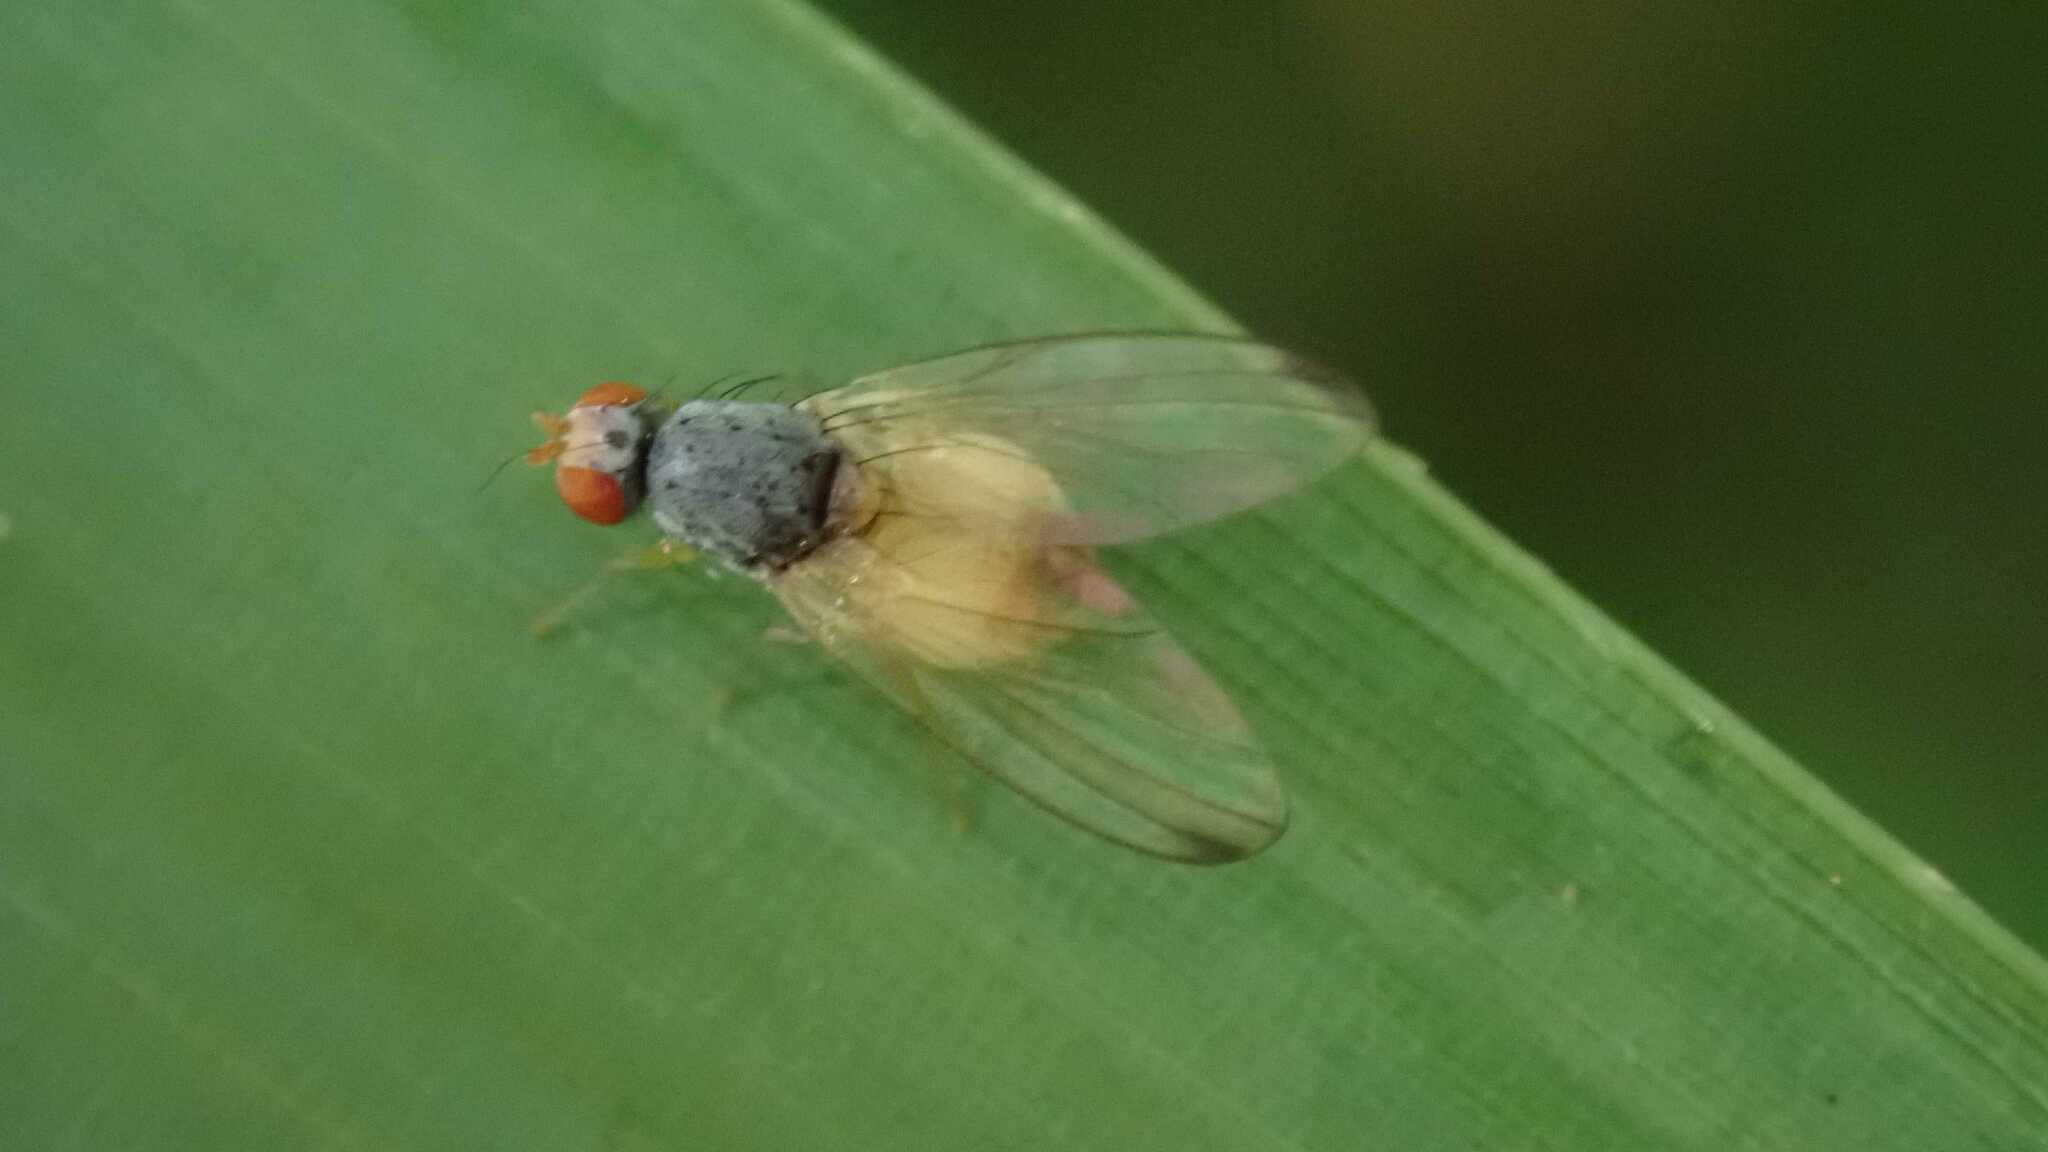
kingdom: Animalia
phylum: Arthropoda
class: Insecta
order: Diptera
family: Pallopteridae
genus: Palloptera
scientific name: Palloptera
